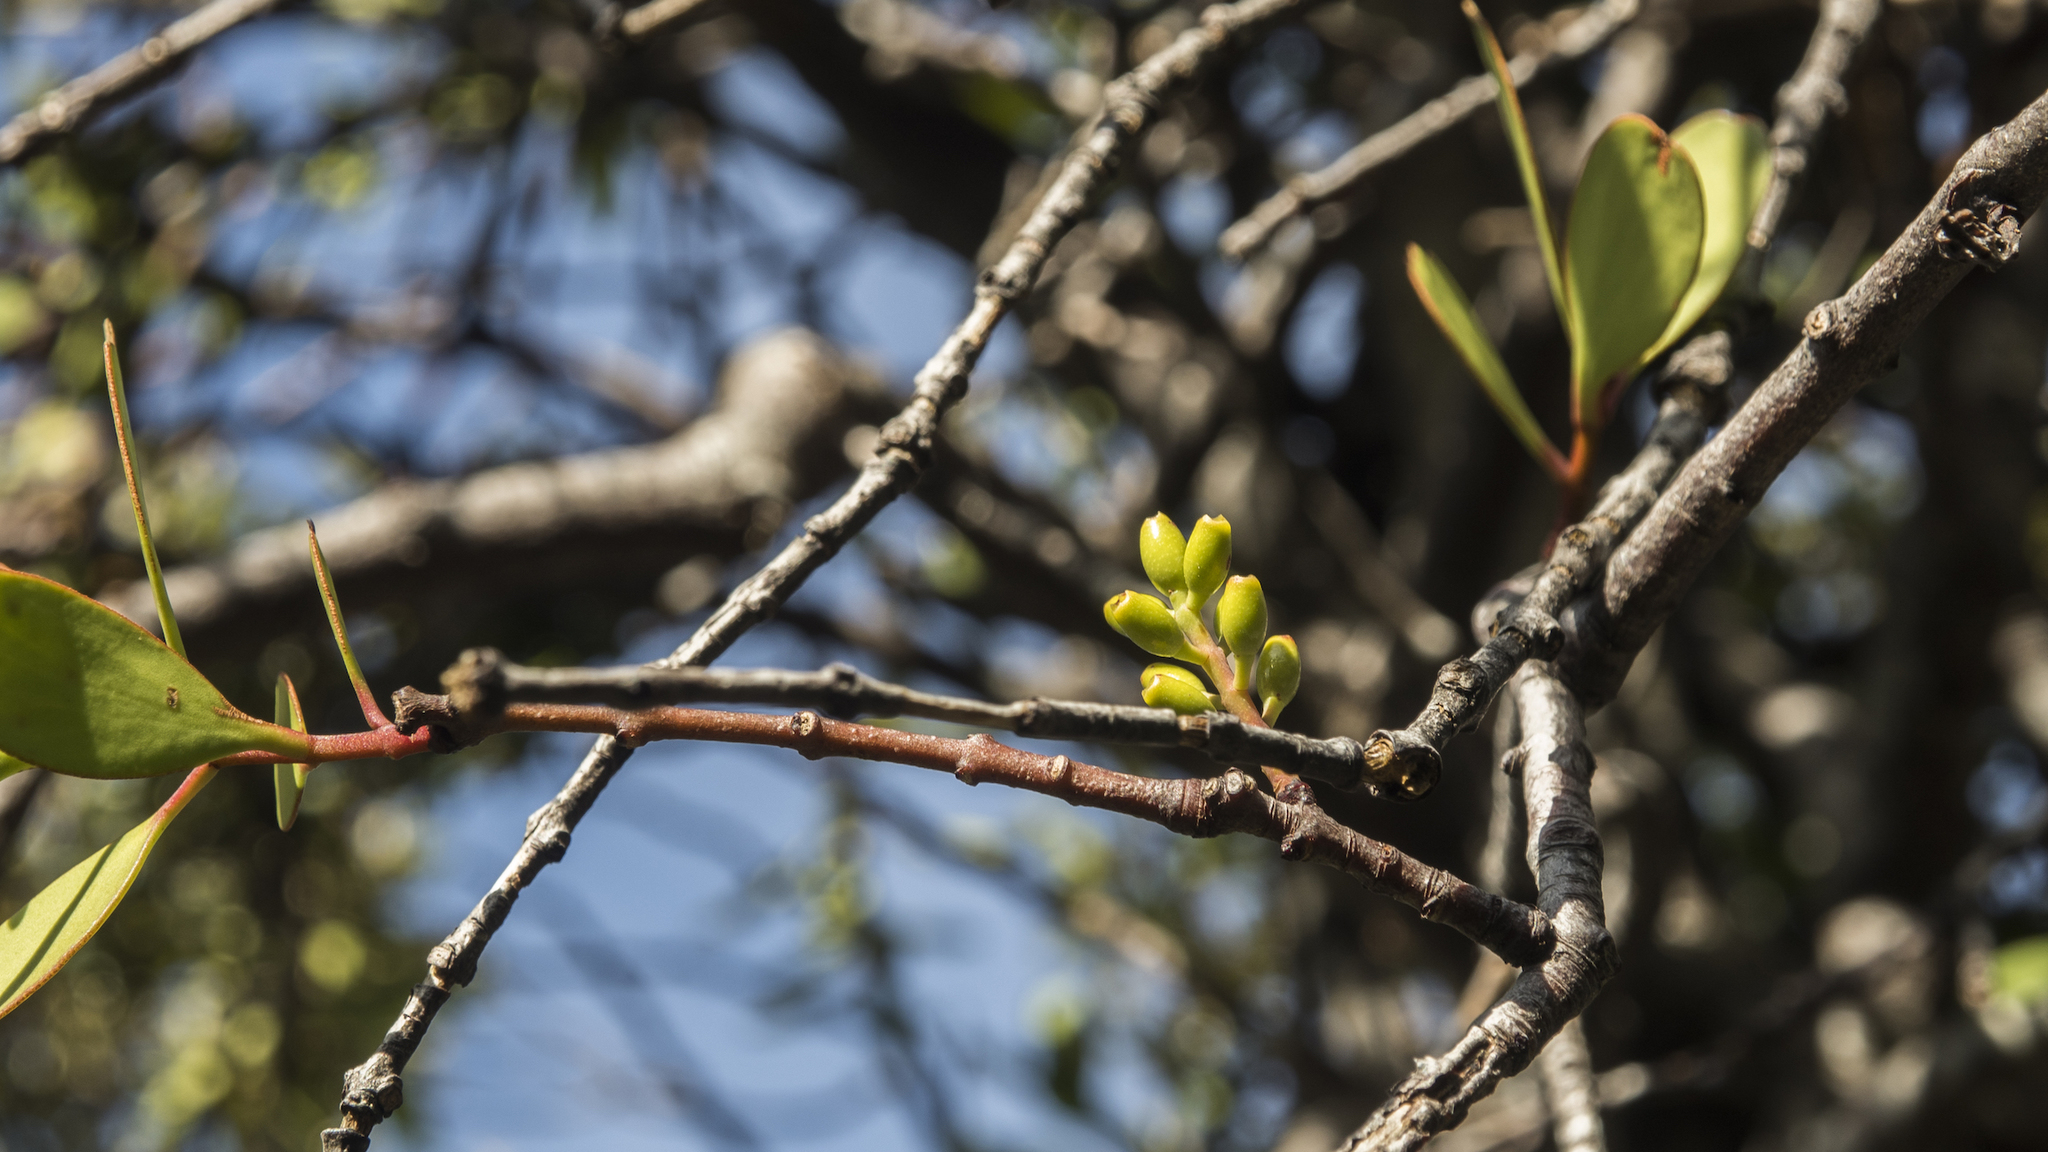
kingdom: Plantae
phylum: Tracheophyta
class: Magnoliopsida
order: Santalales
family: Loranthaceae
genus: Alepis
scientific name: Alepis flavida
